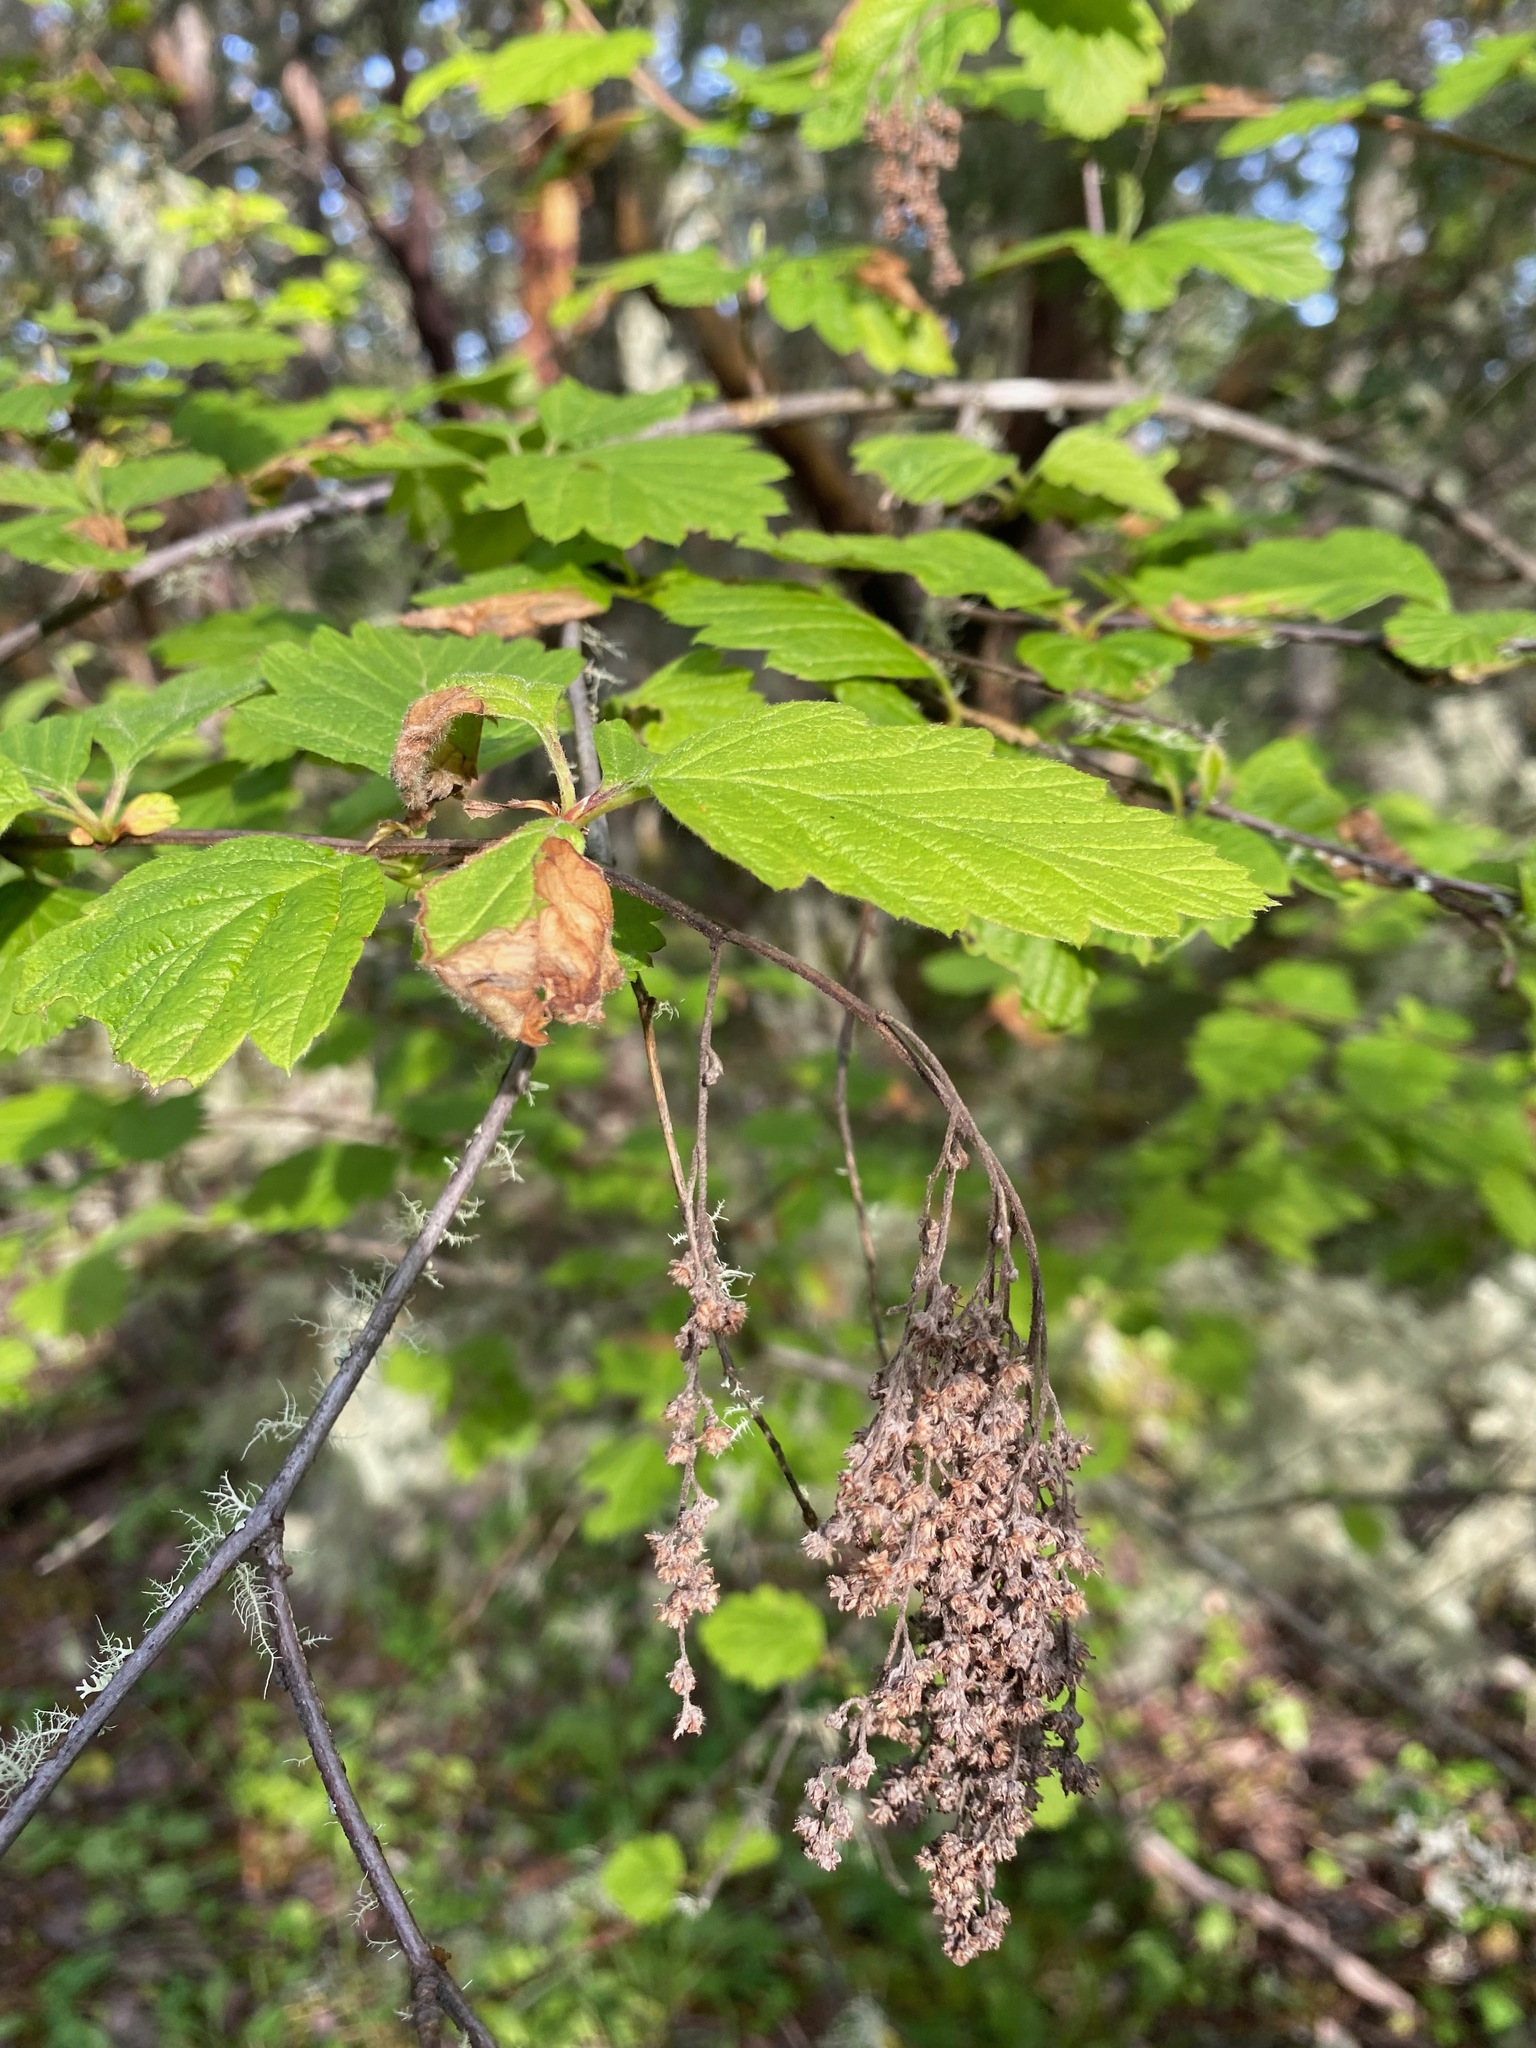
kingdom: Plantae
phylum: Tracheophyta
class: Magnoliopsida
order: Rosales
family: Rosaceae
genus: Holodiscus
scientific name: Holodiscus discolor
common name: Oceanspray
